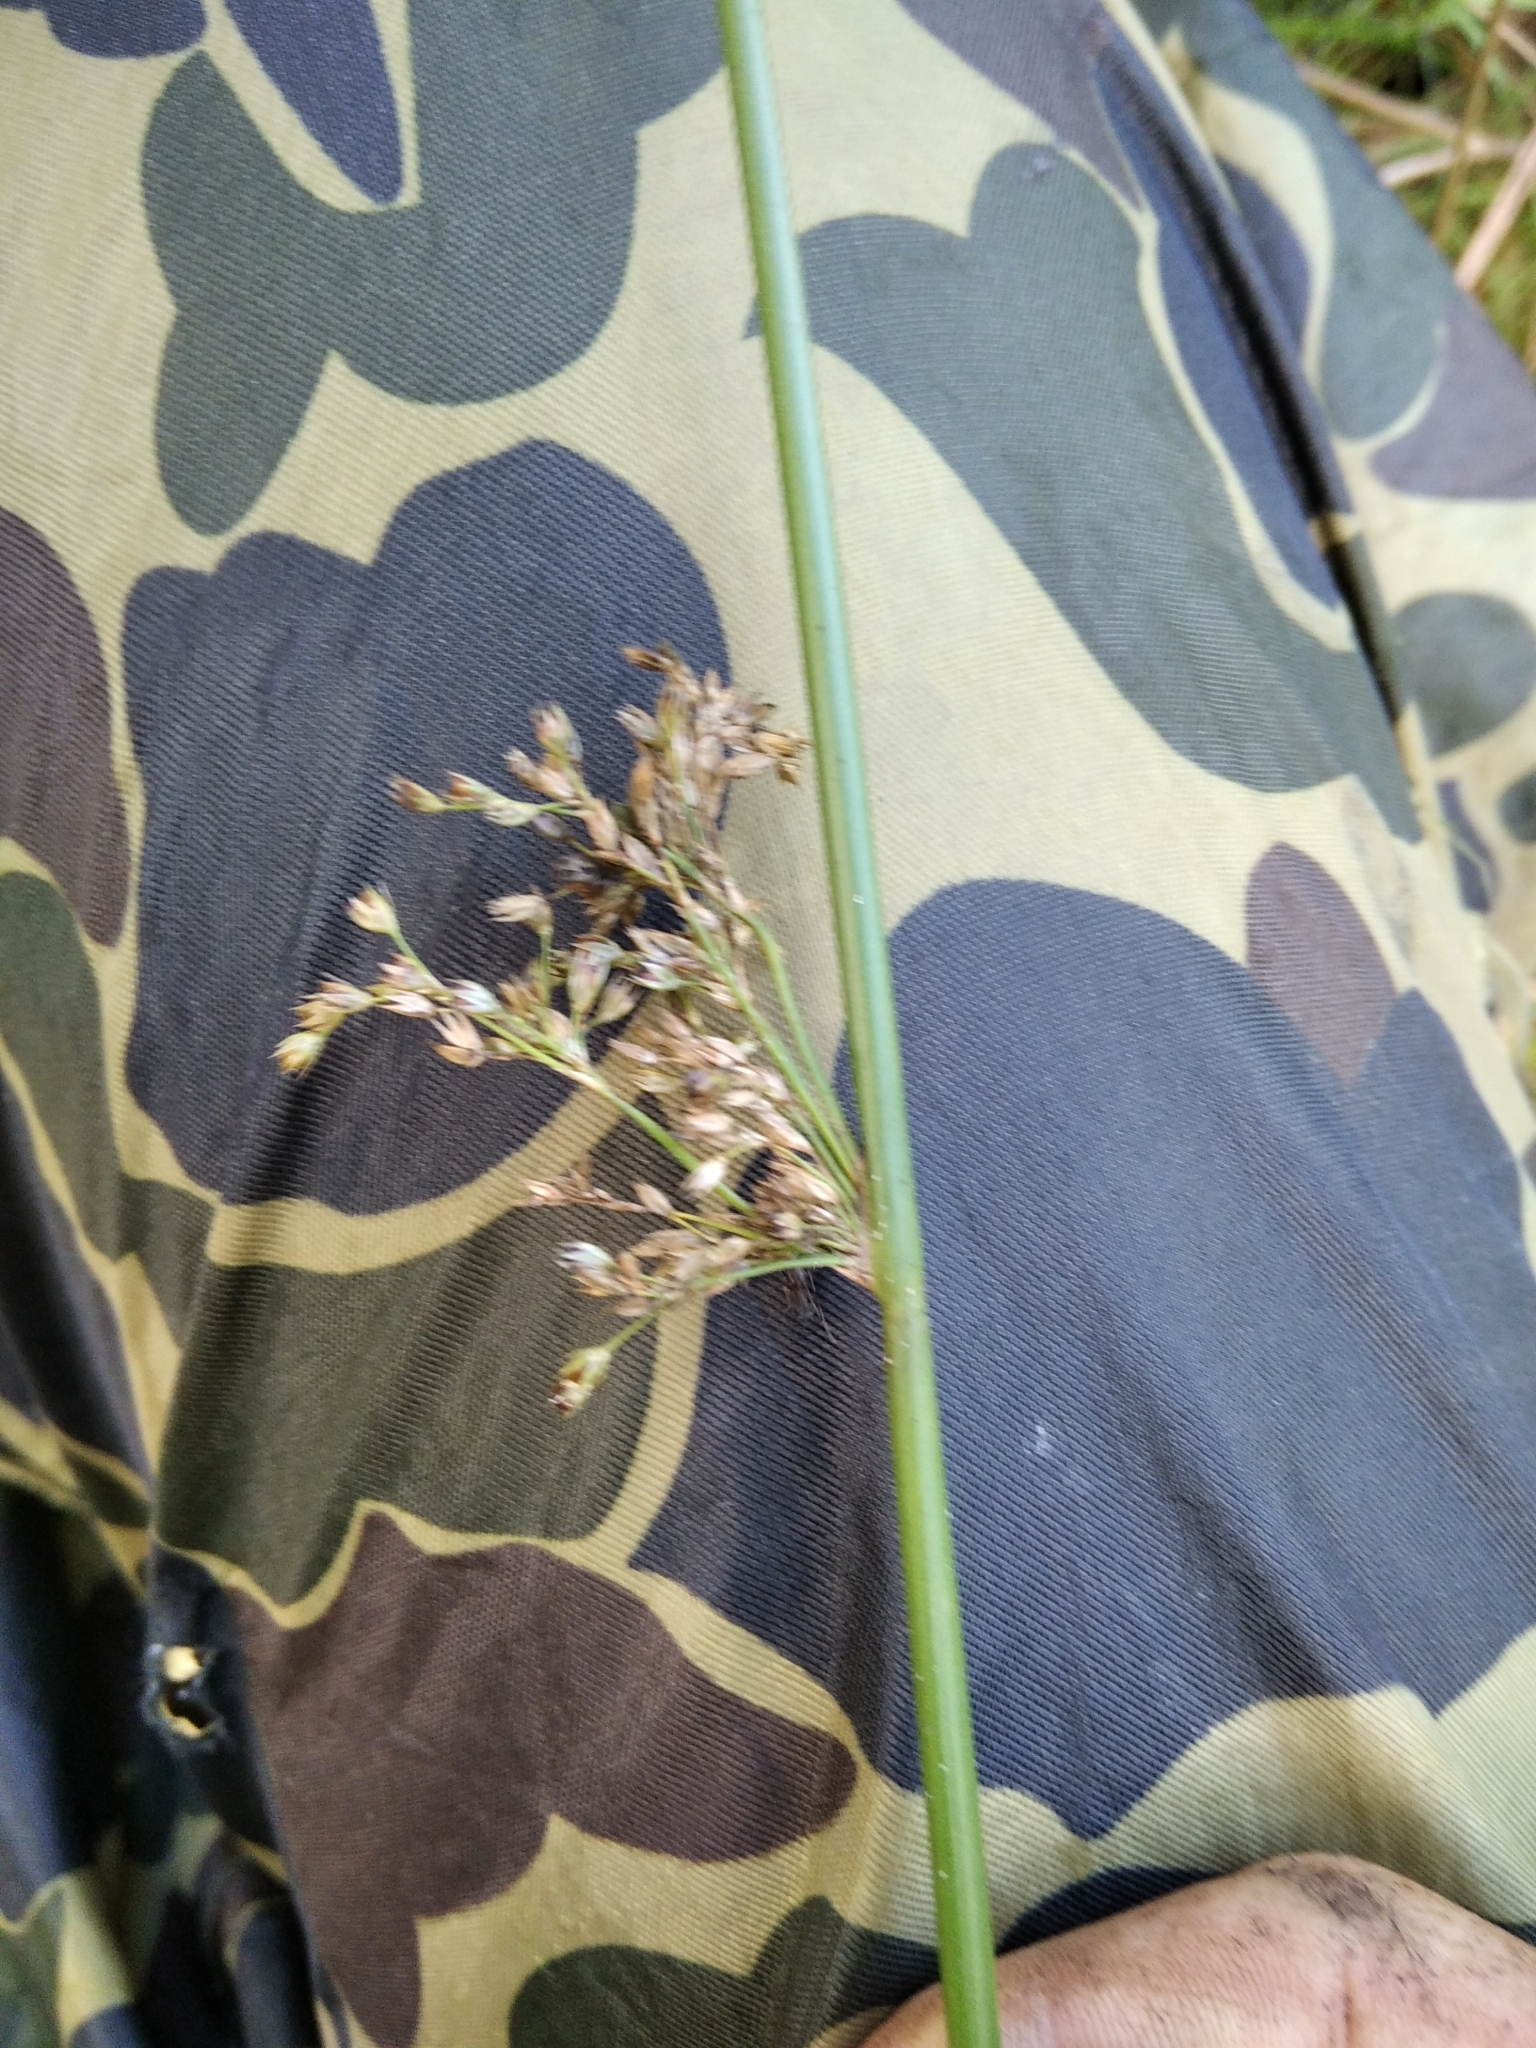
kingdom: Plantae
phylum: Tracheophyta
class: Liliopsida
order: Poales
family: Juncaceae
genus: Juncus
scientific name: Juncus effusus
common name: Soft rush
